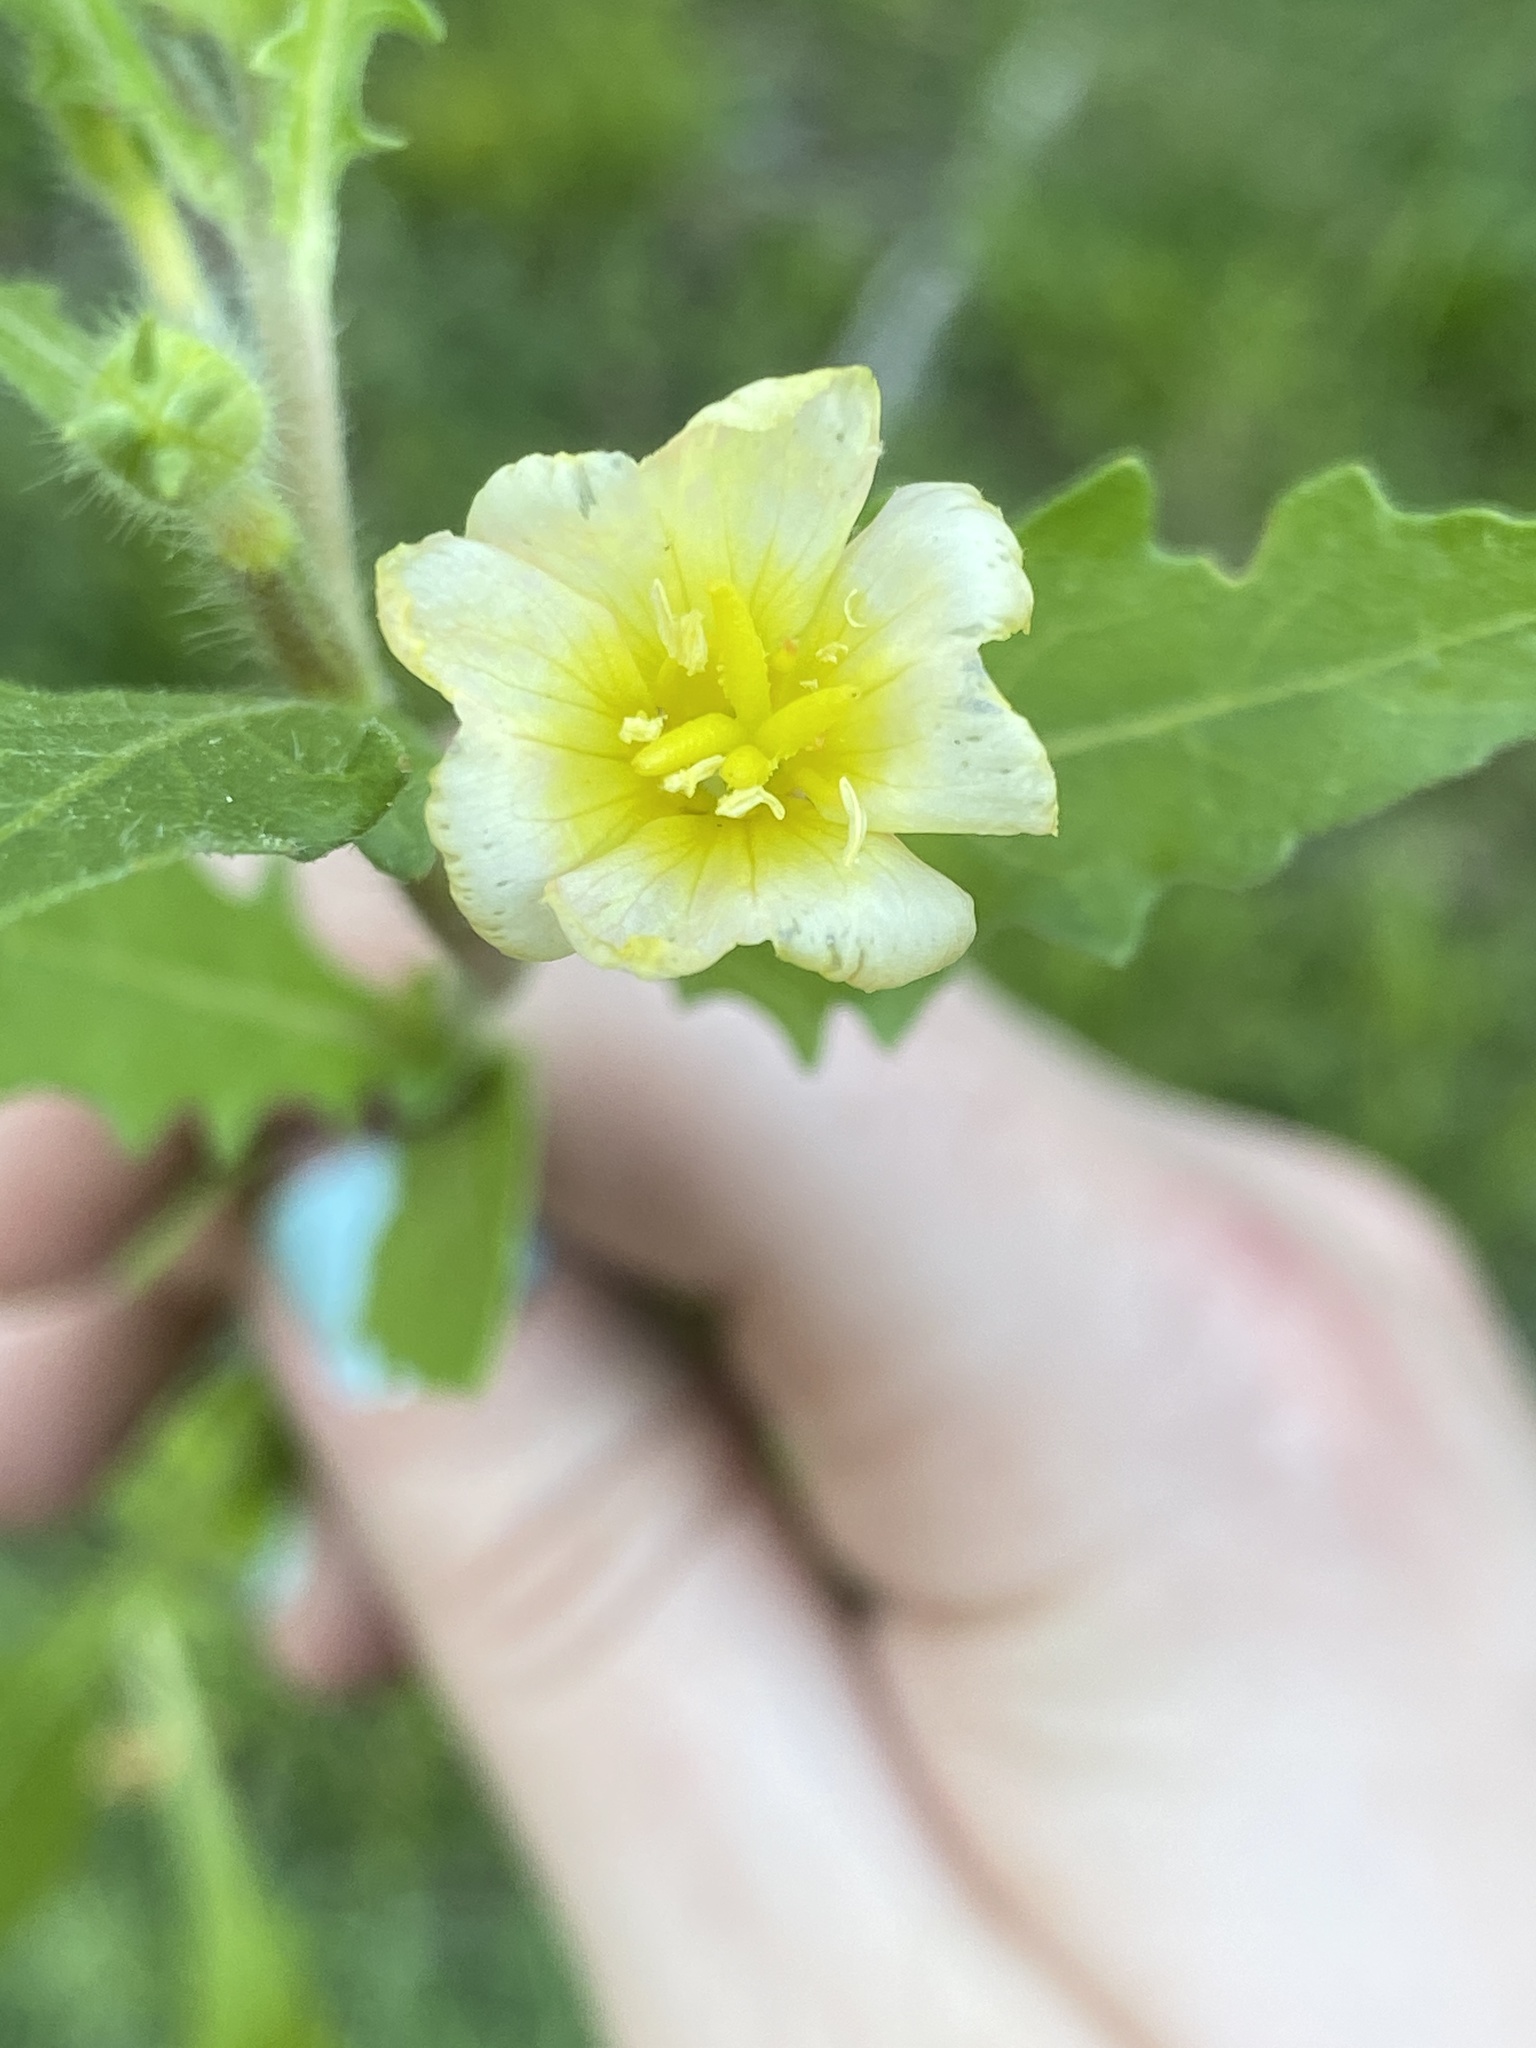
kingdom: Plantae
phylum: Tracheophyta
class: Magnoliopsida
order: Myrtales
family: Onagraceae
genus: Oenothera
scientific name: Oenothera laciniata
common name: Cut-leaved evening-primrose
